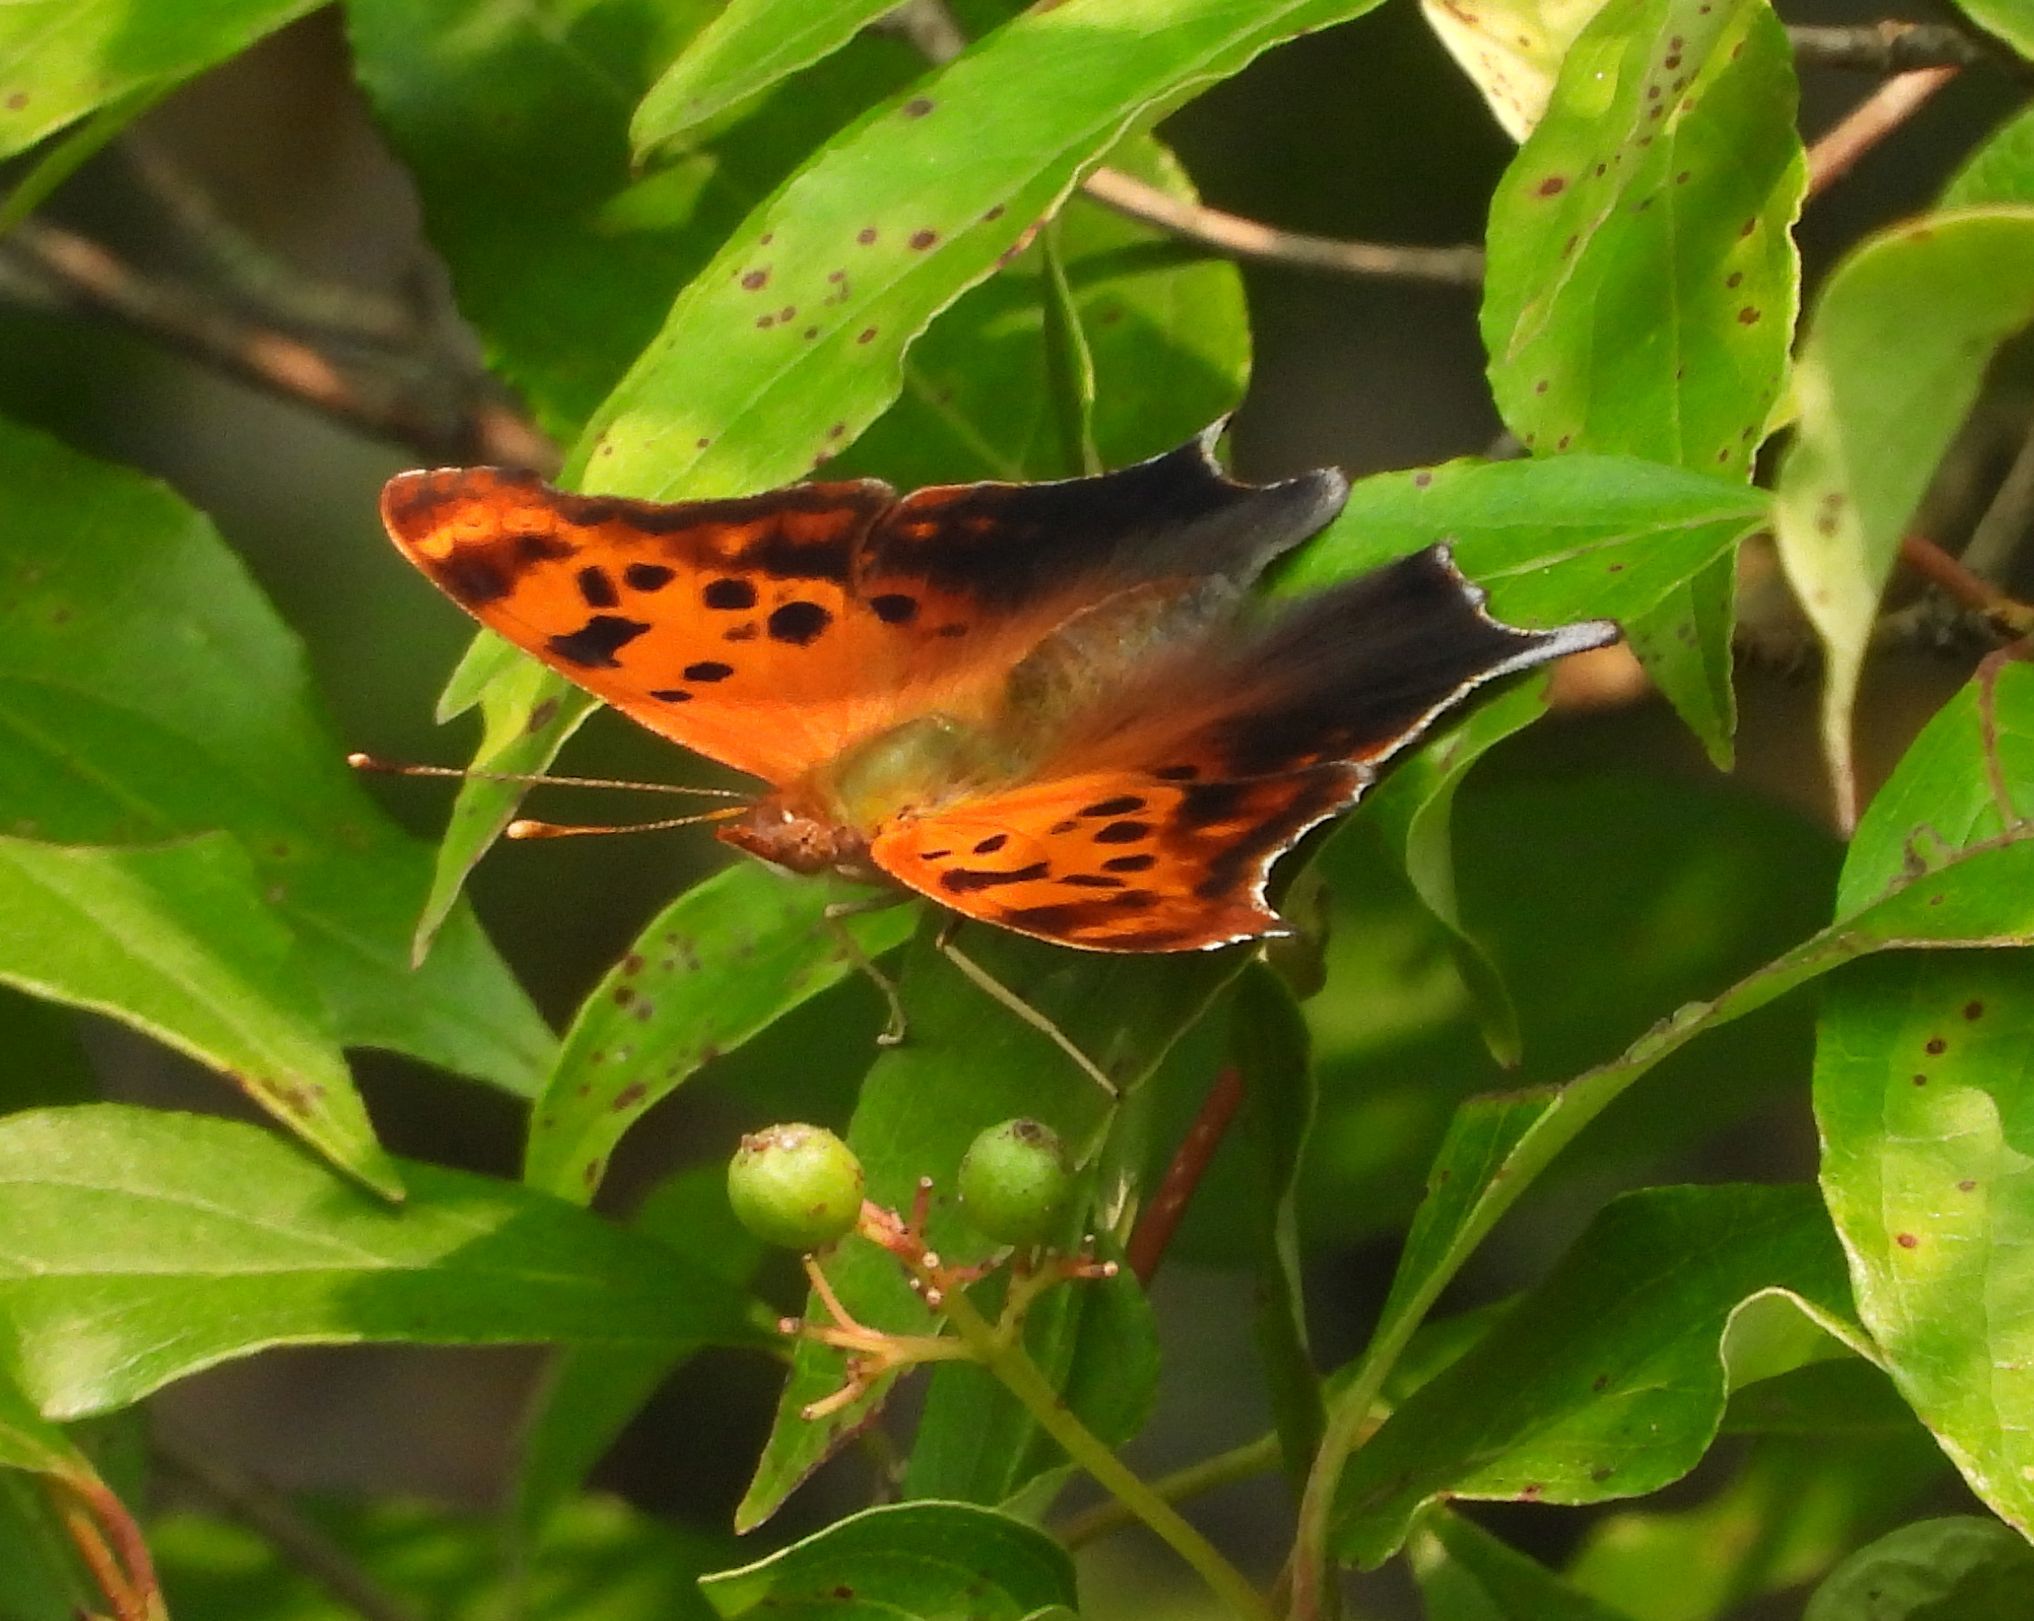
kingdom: Animalia
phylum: Arthropoda
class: Insecta
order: Lepidoptera
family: Nymphalidae
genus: Polygonia
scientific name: Polygonia interrogationis
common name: Question mark
